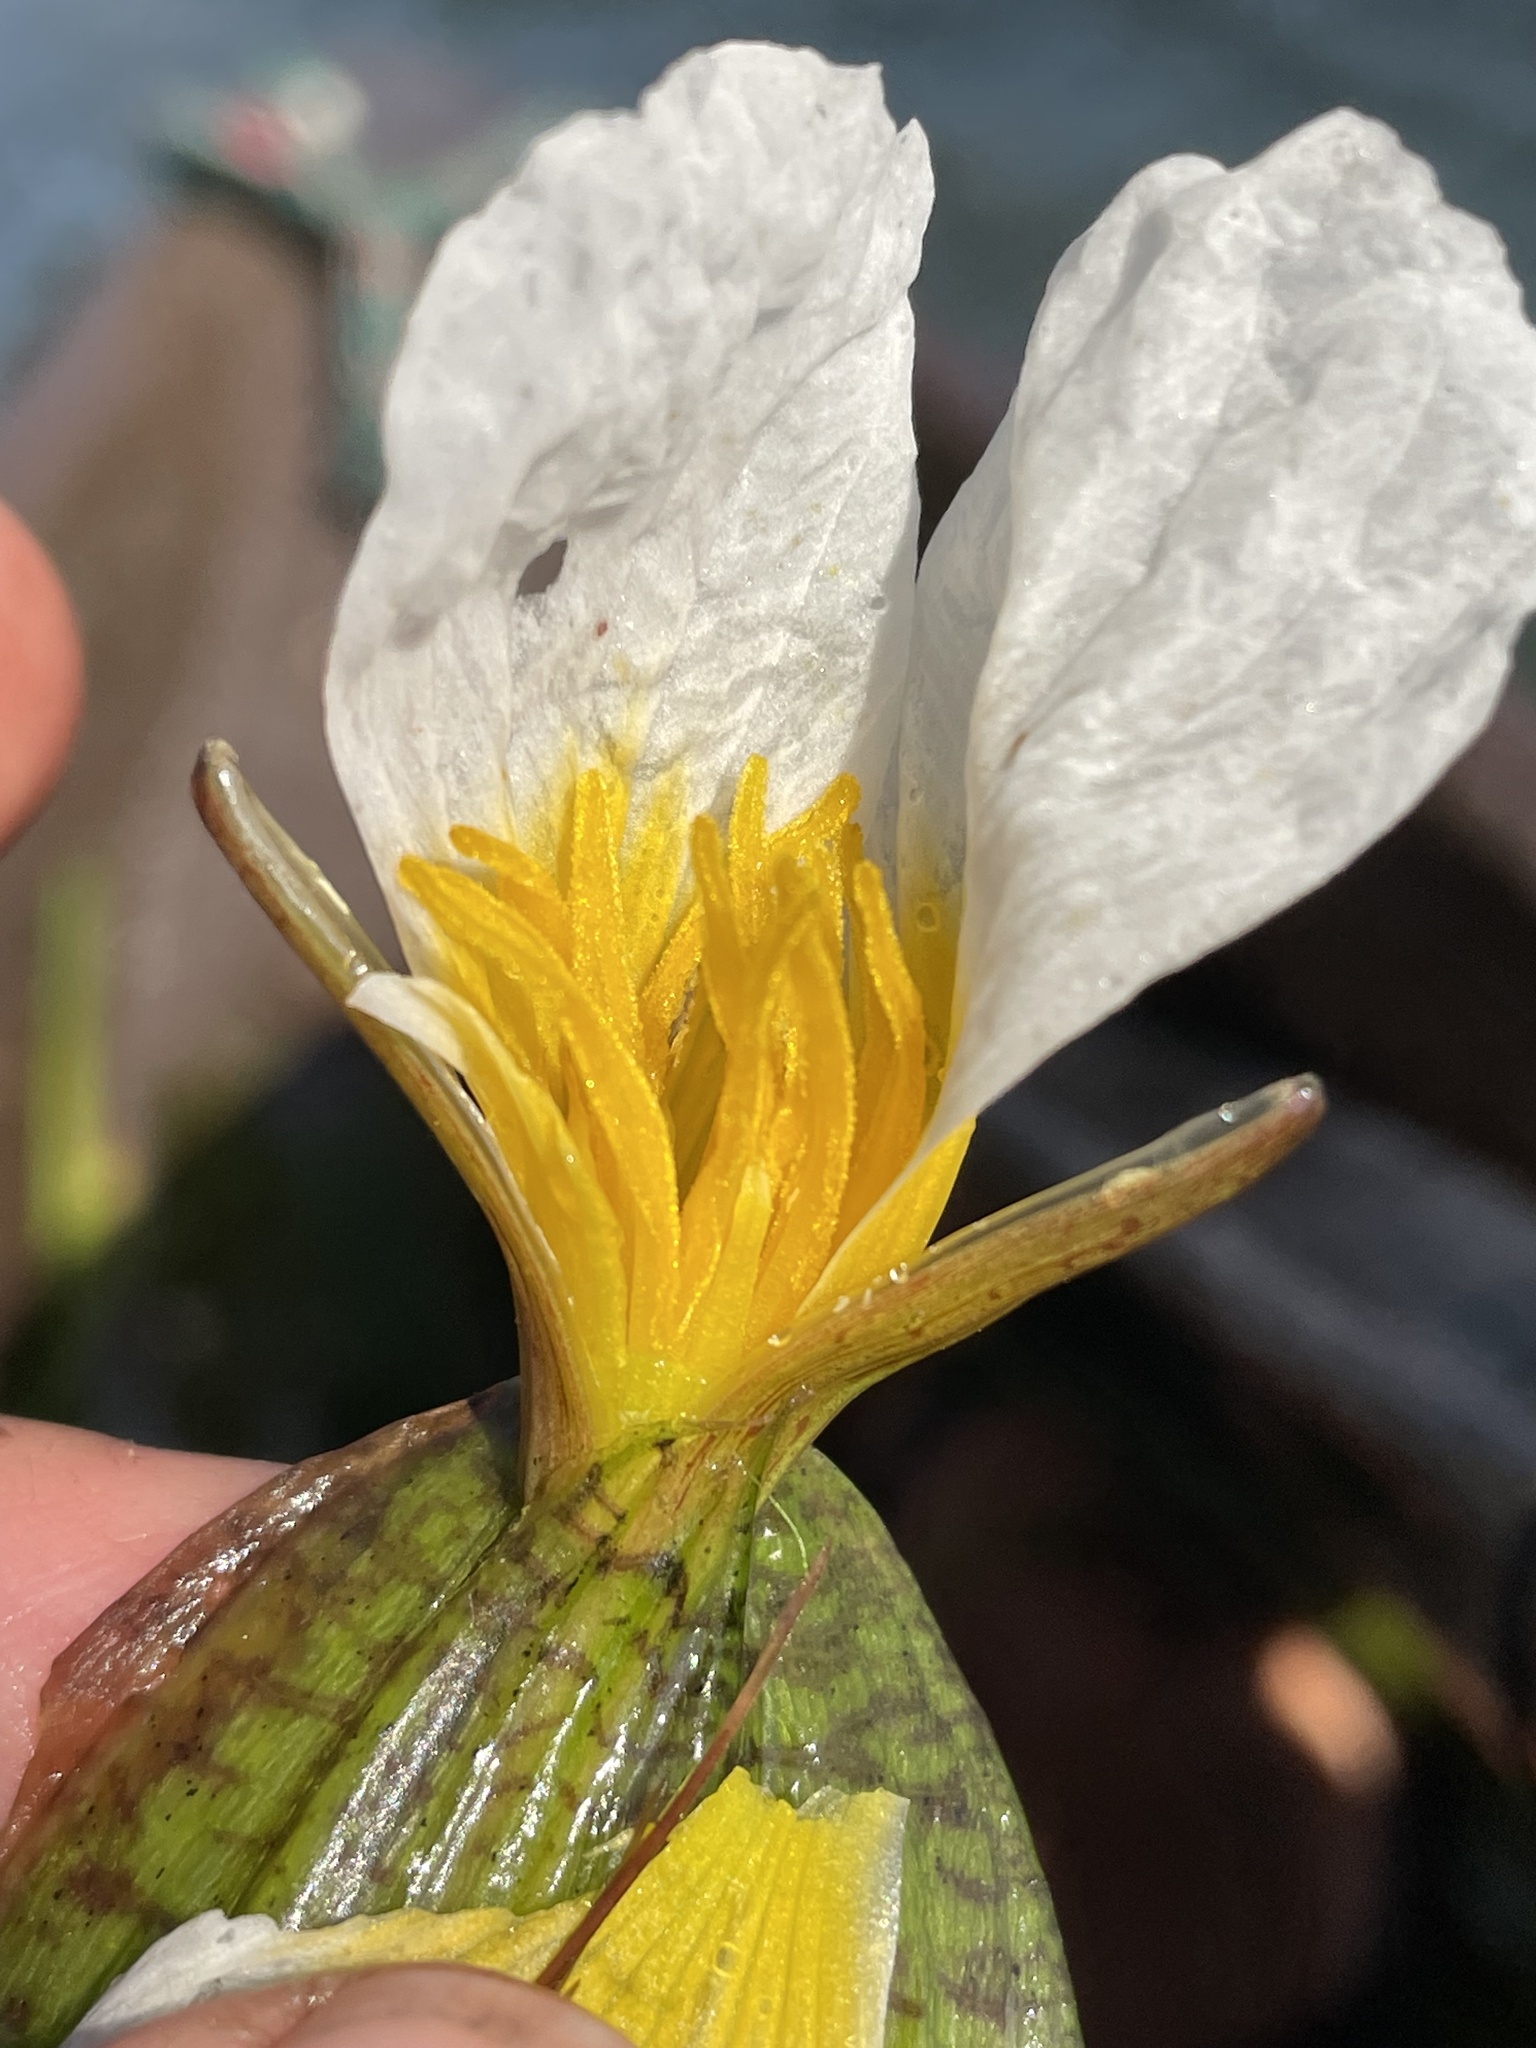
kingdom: Plantae
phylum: Tracheophyta
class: Liliopsida
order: Alismatales
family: Hydrocharitaceae
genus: Ottelia
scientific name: Ottelia ulvifolia
